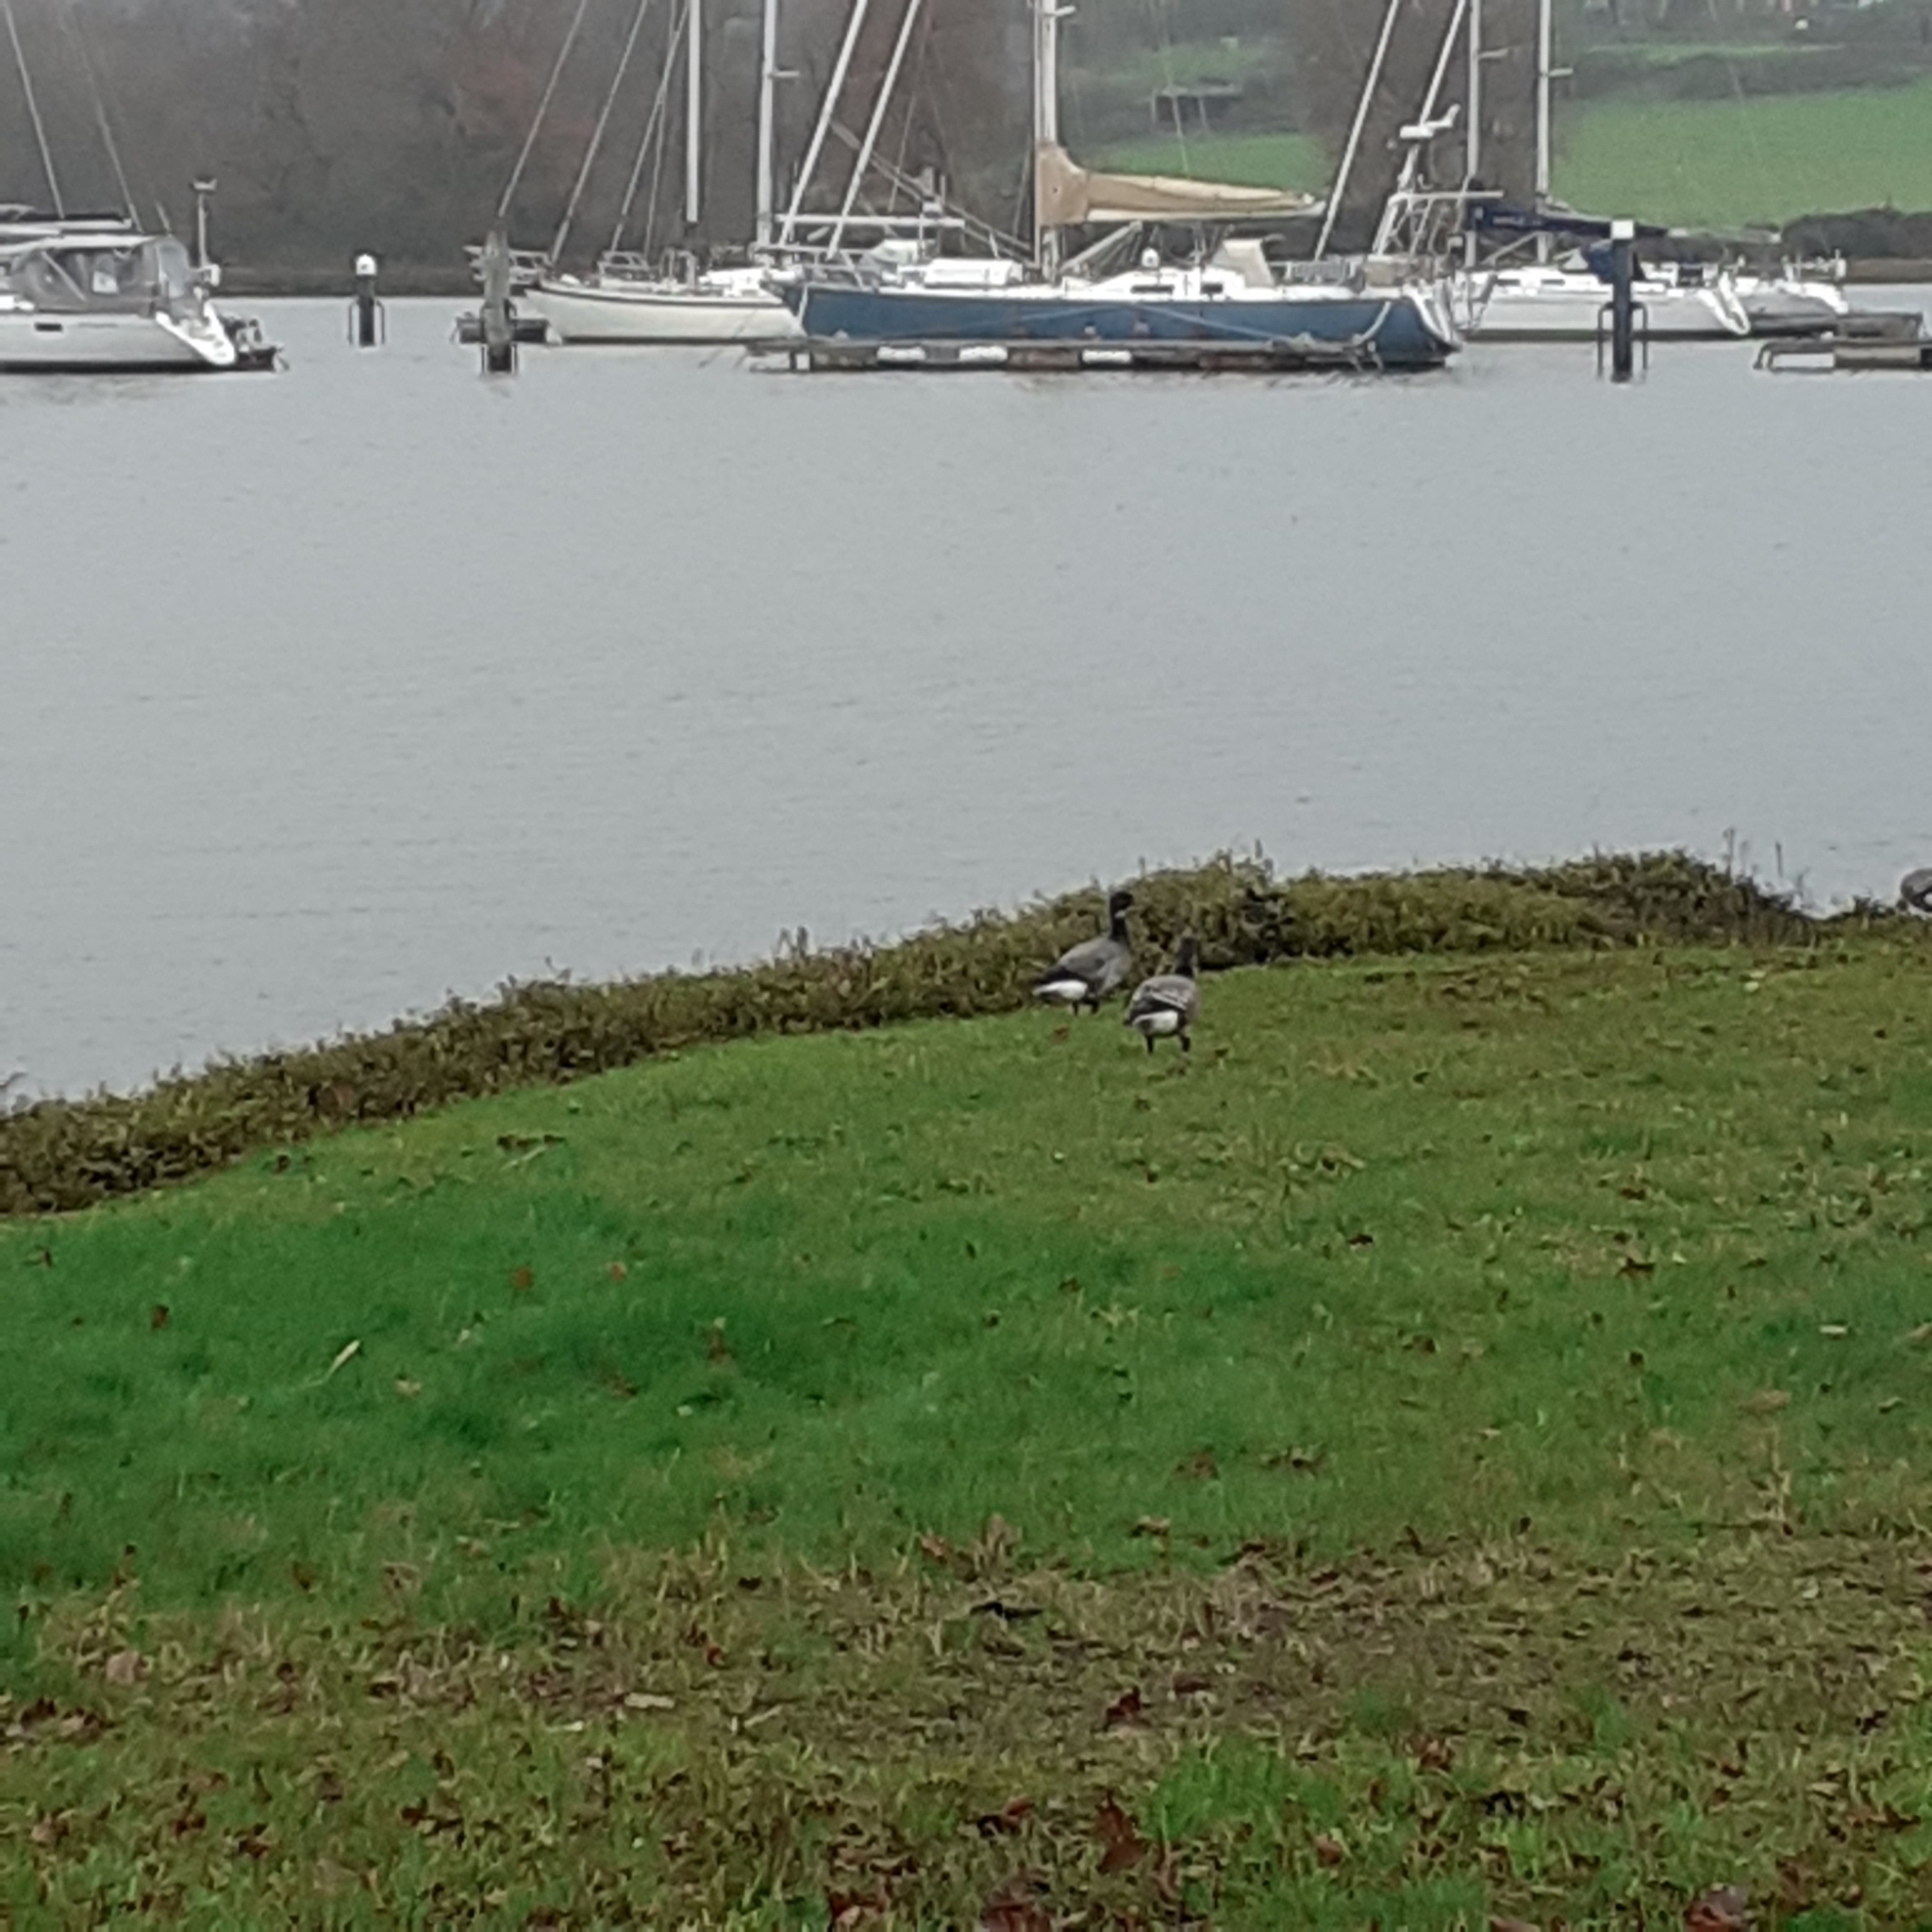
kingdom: Animalia
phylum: Chordata
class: Aves
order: Anseriformes
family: Anatidae
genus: Branta
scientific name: Branta bernicla
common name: Brant goose
